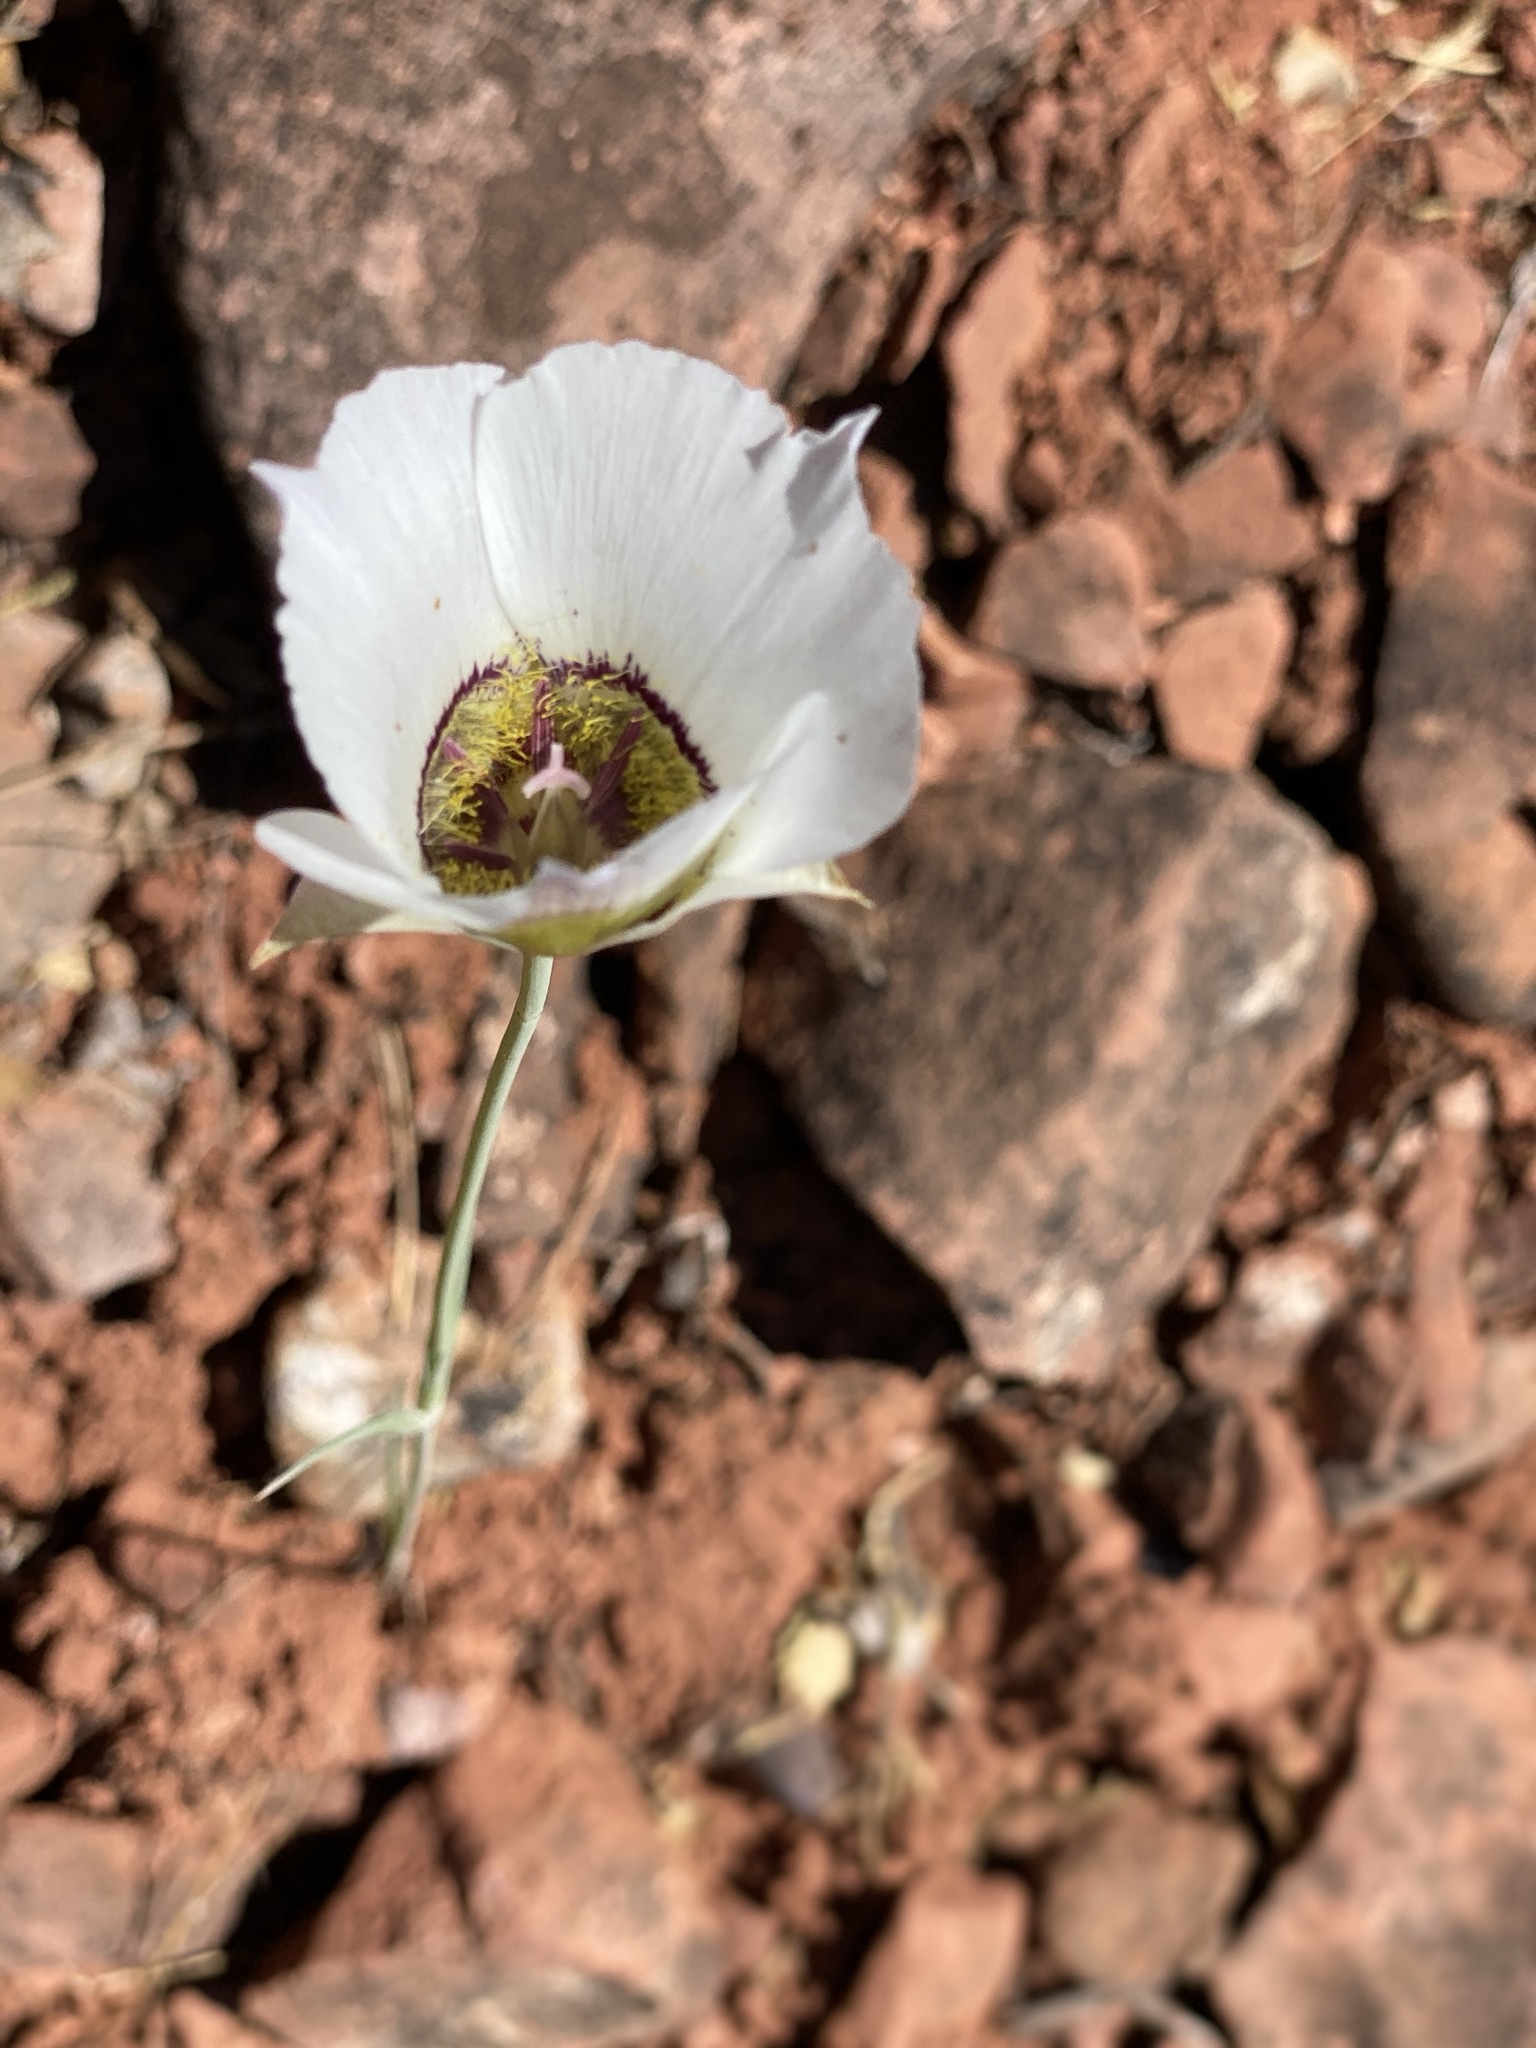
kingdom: Plantae
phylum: Tracheophyta
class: Liliopsida
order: Liliales
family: Liliaceae
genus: Calochortus
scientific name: Calochortus ambiguus
